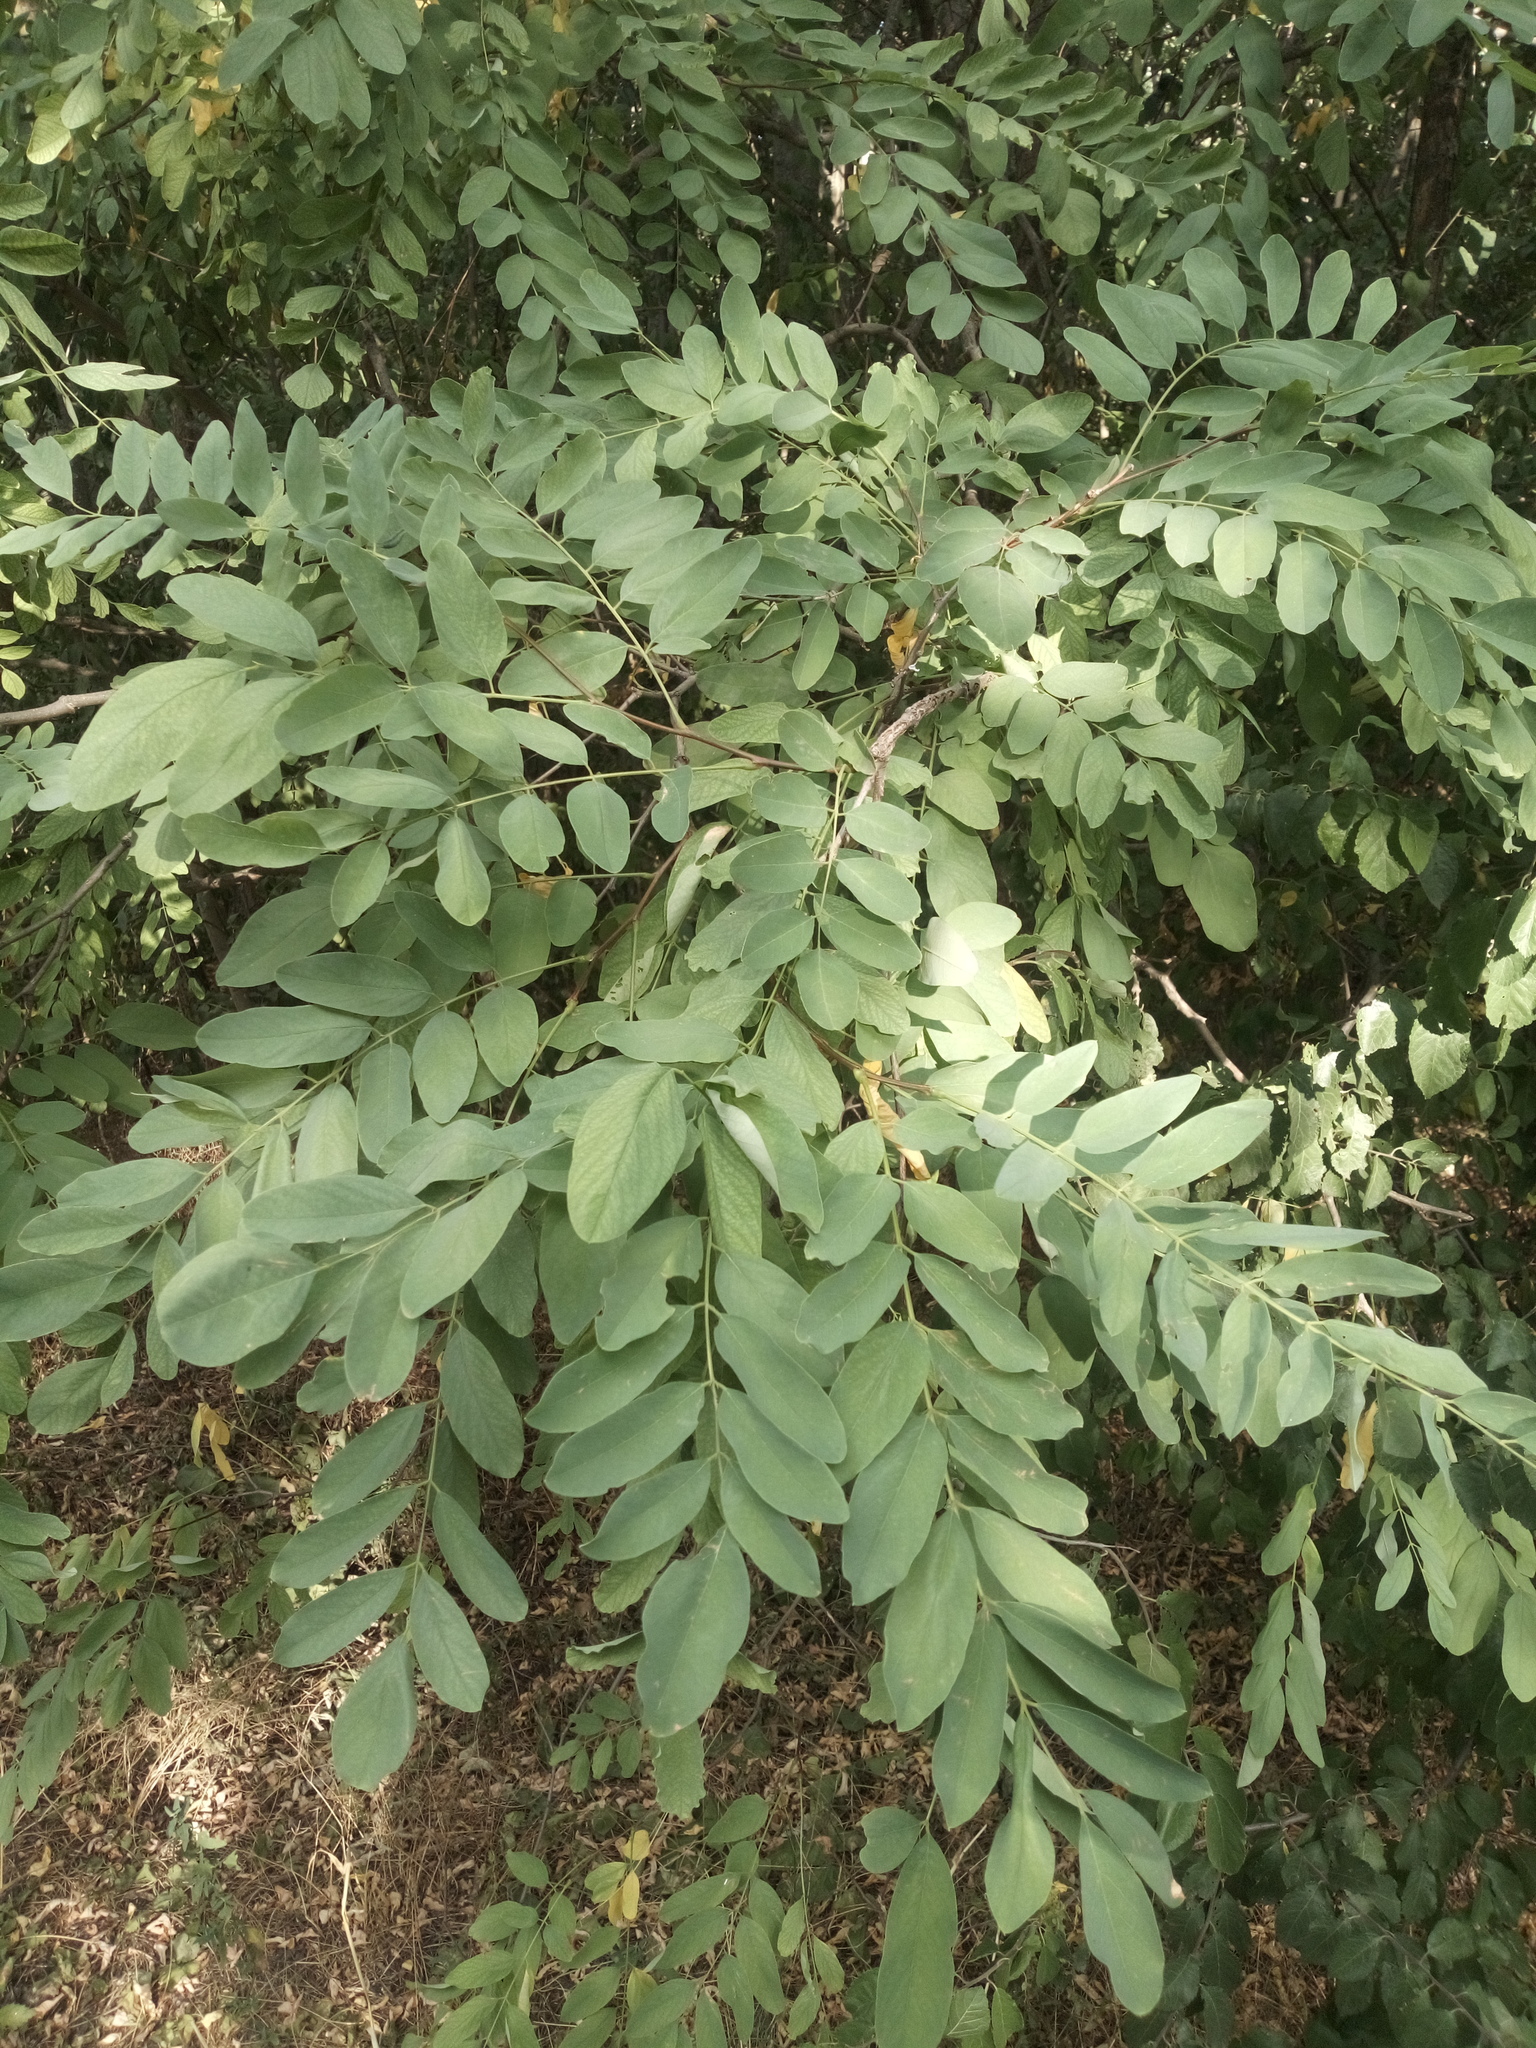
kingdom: Plantae
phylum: Tracheophyta
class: Magnoliopsida
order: Fabales
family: Fabaceae
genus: Robinia
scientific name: Robinia pseudoacacia
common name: Black locust
